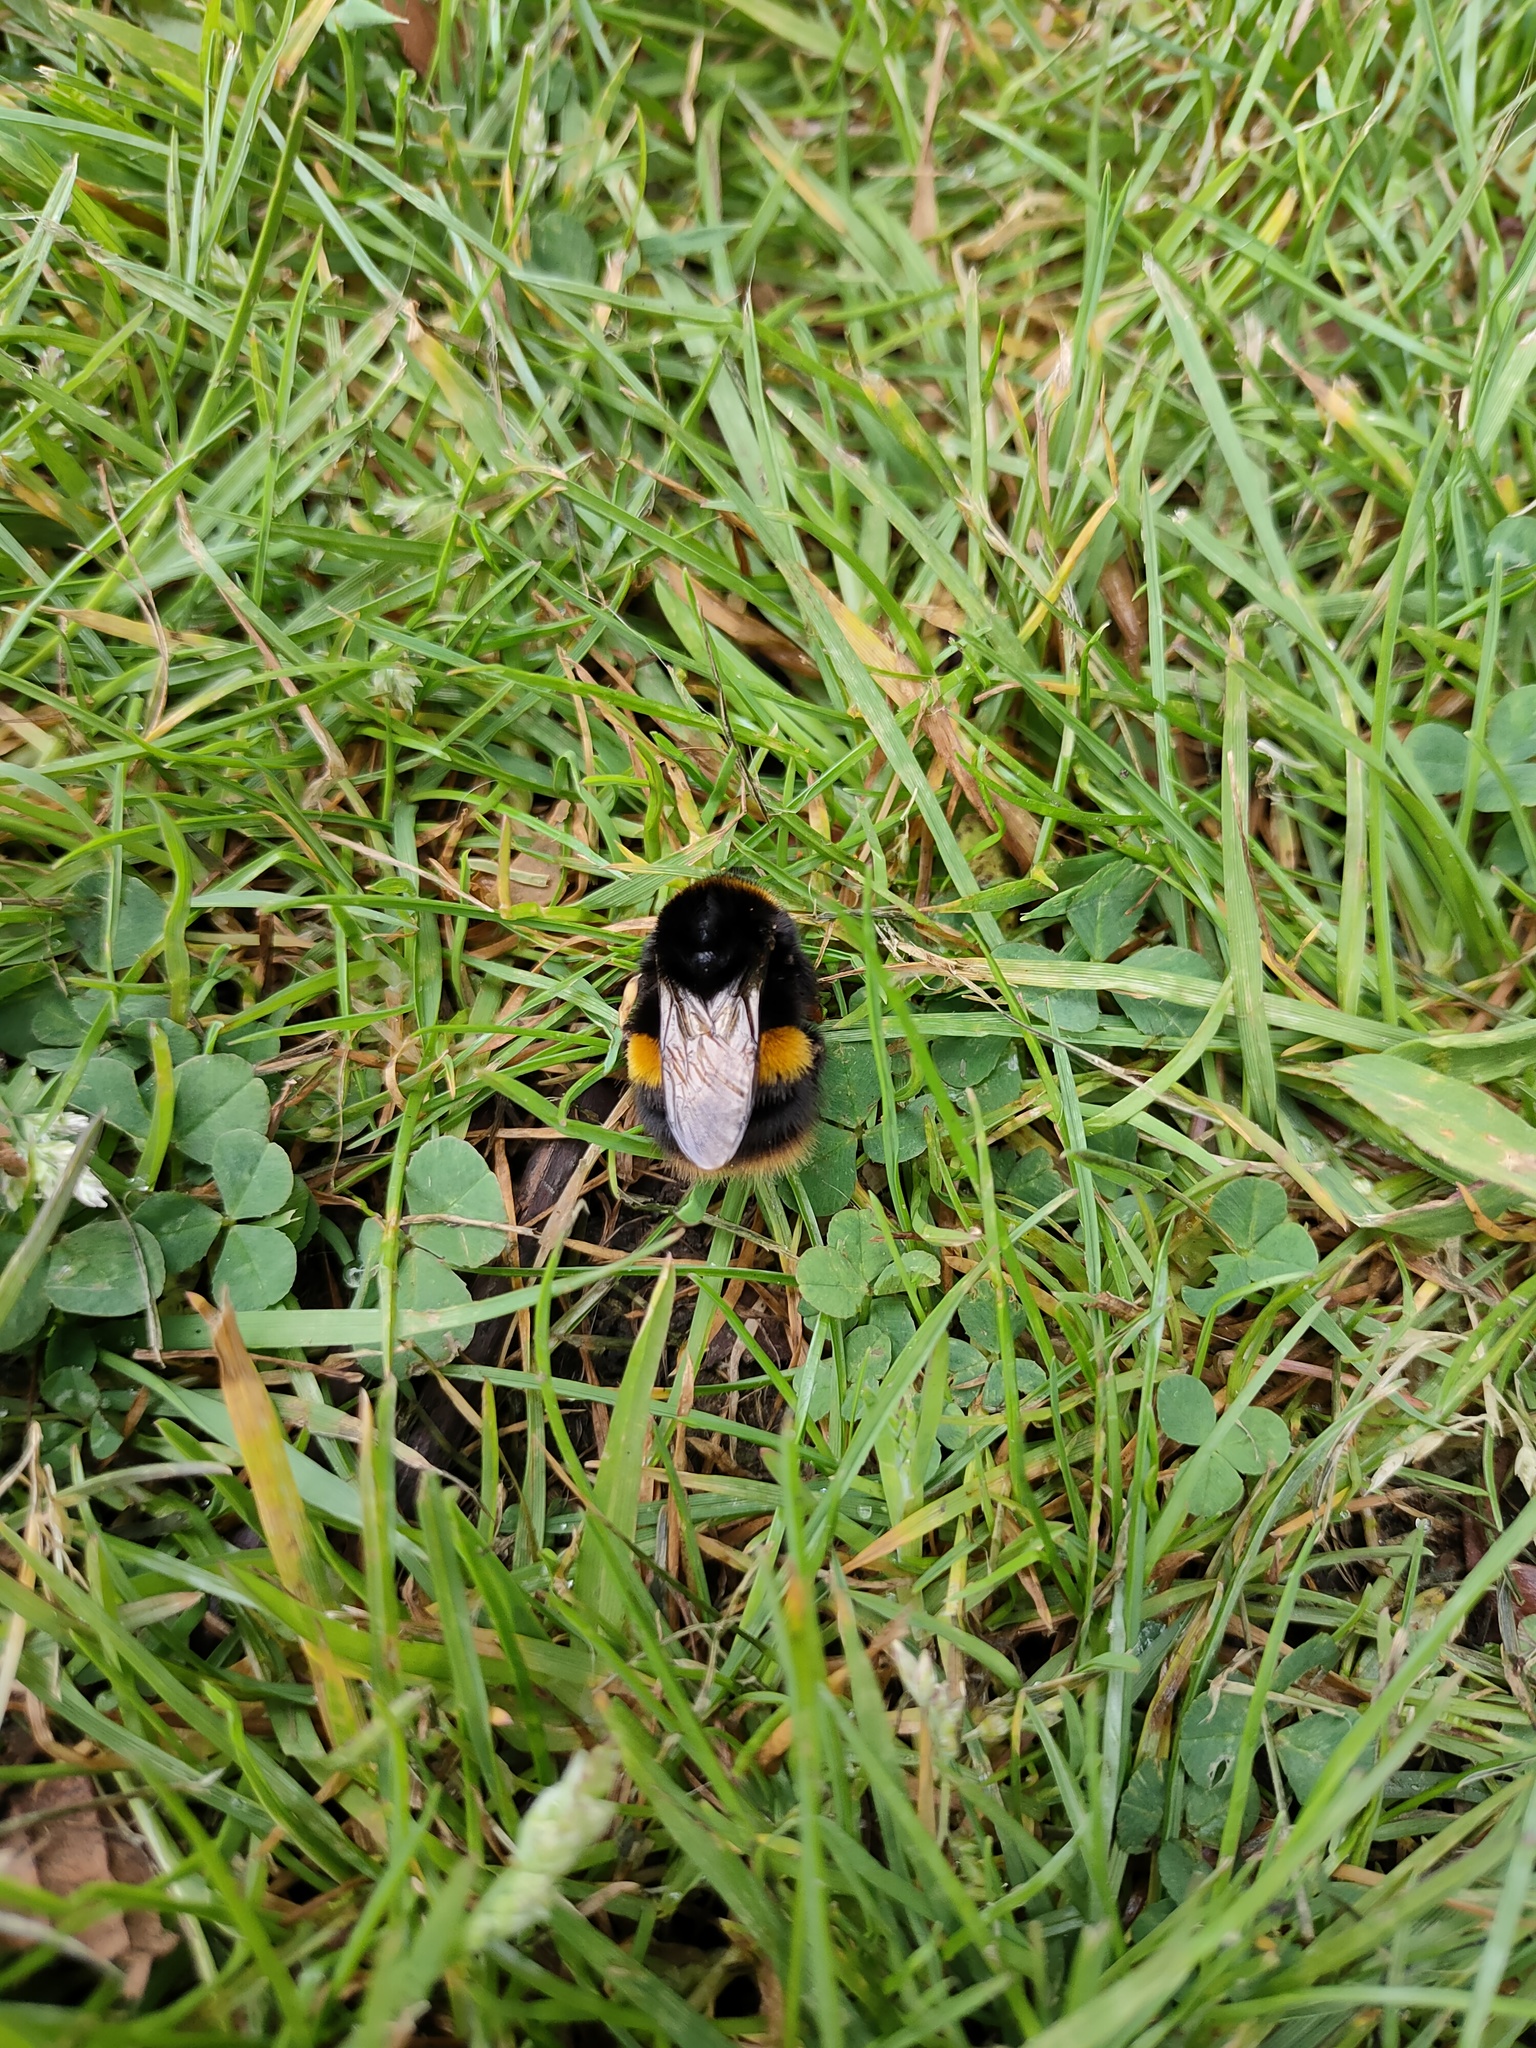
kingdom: Animalia
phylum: Arthropoda
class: Insecta
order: Hymenoptera
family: Apidae
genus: Bombus
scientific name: Bombus terrestris
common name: Buff-tailed bumblebee
